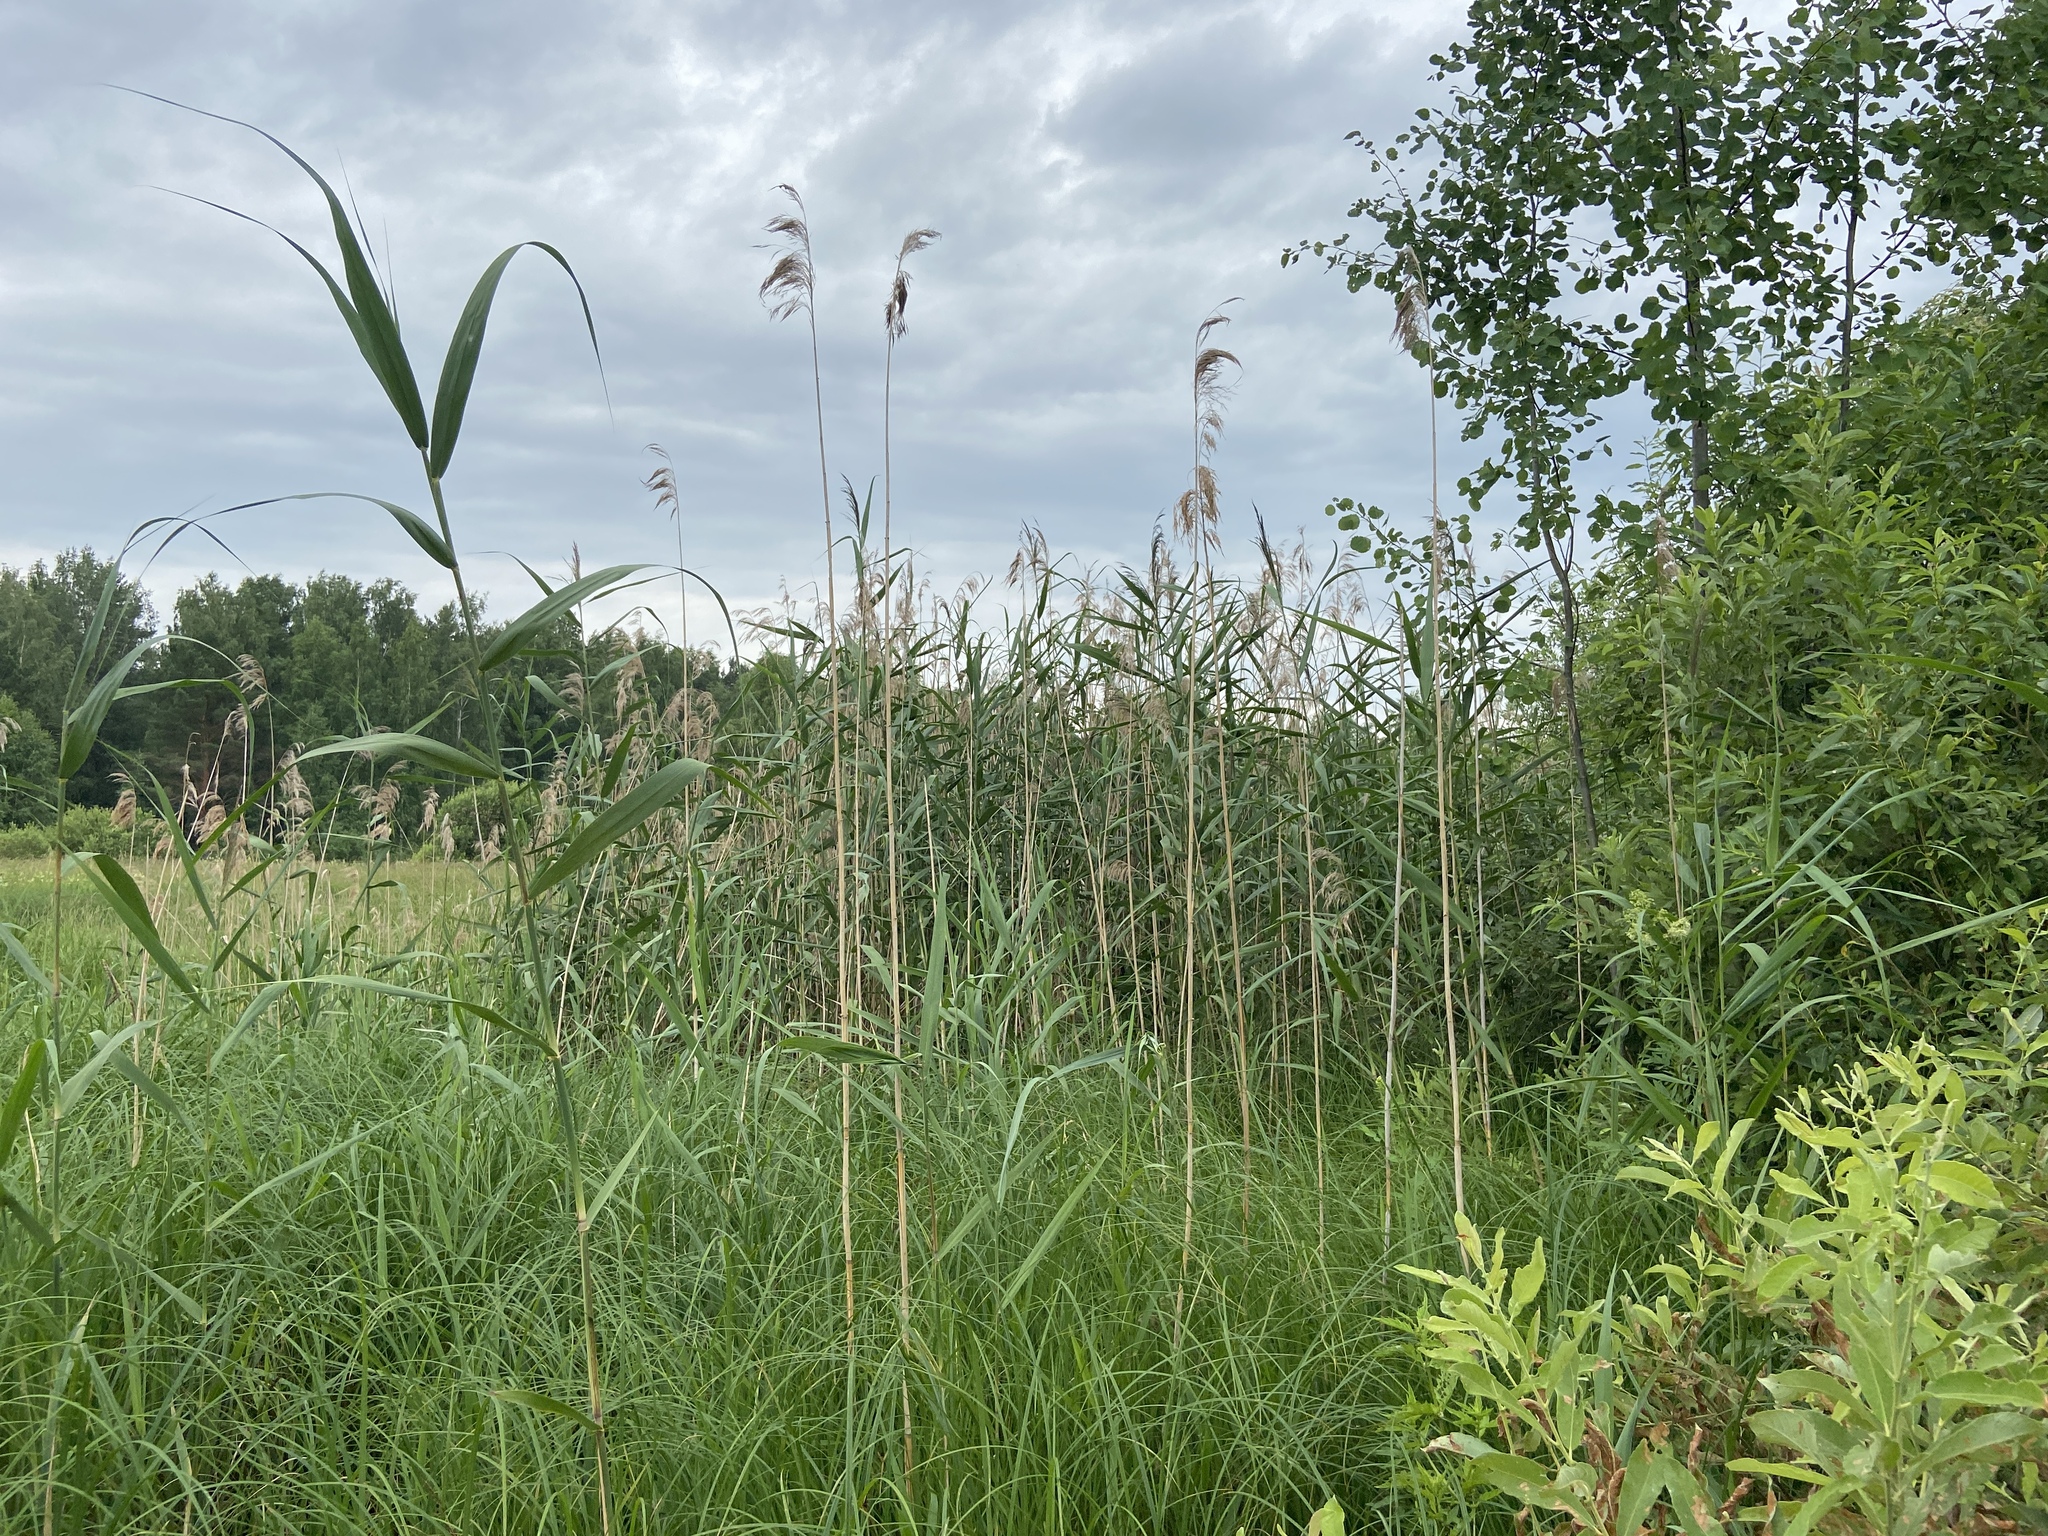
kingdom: Plantae
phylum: Tracheophyta
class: Liliopsida
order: Poales
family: Poaceae
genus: Phragmites
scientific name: Phragmites australis
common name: Common reed
